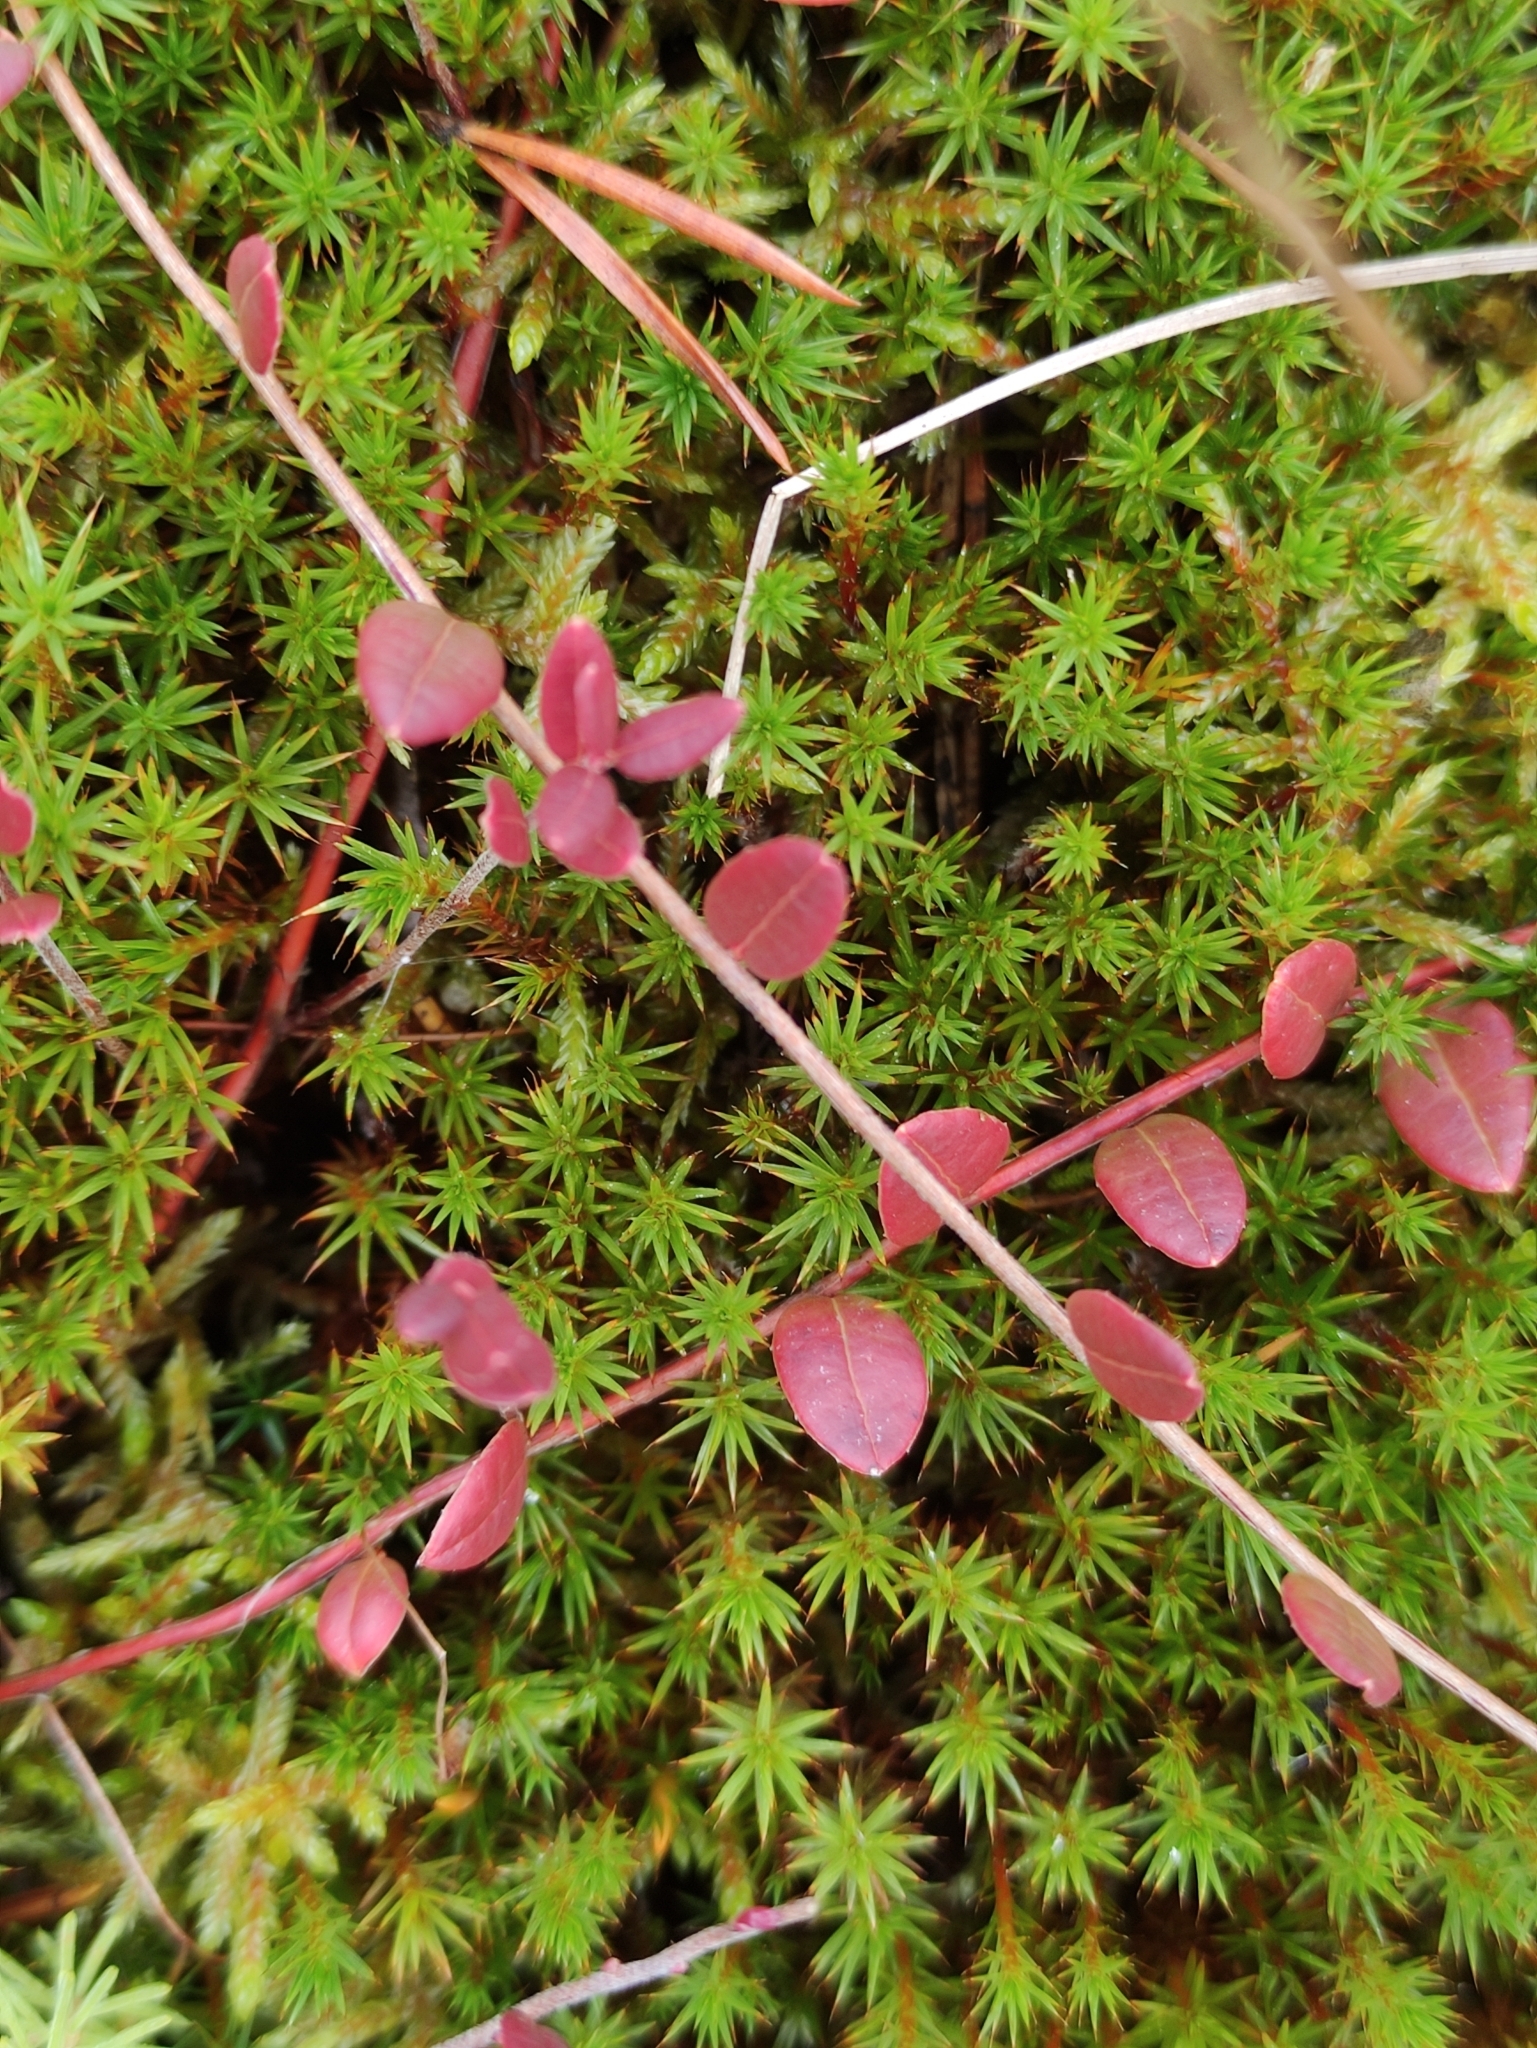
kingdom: Plantae
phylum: Tracheophyta
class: Magnoliopsida
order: Ericales
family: Ericaceae
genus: Vaccinium
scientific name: Vaccinium oxycoccos
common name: Cranberry
